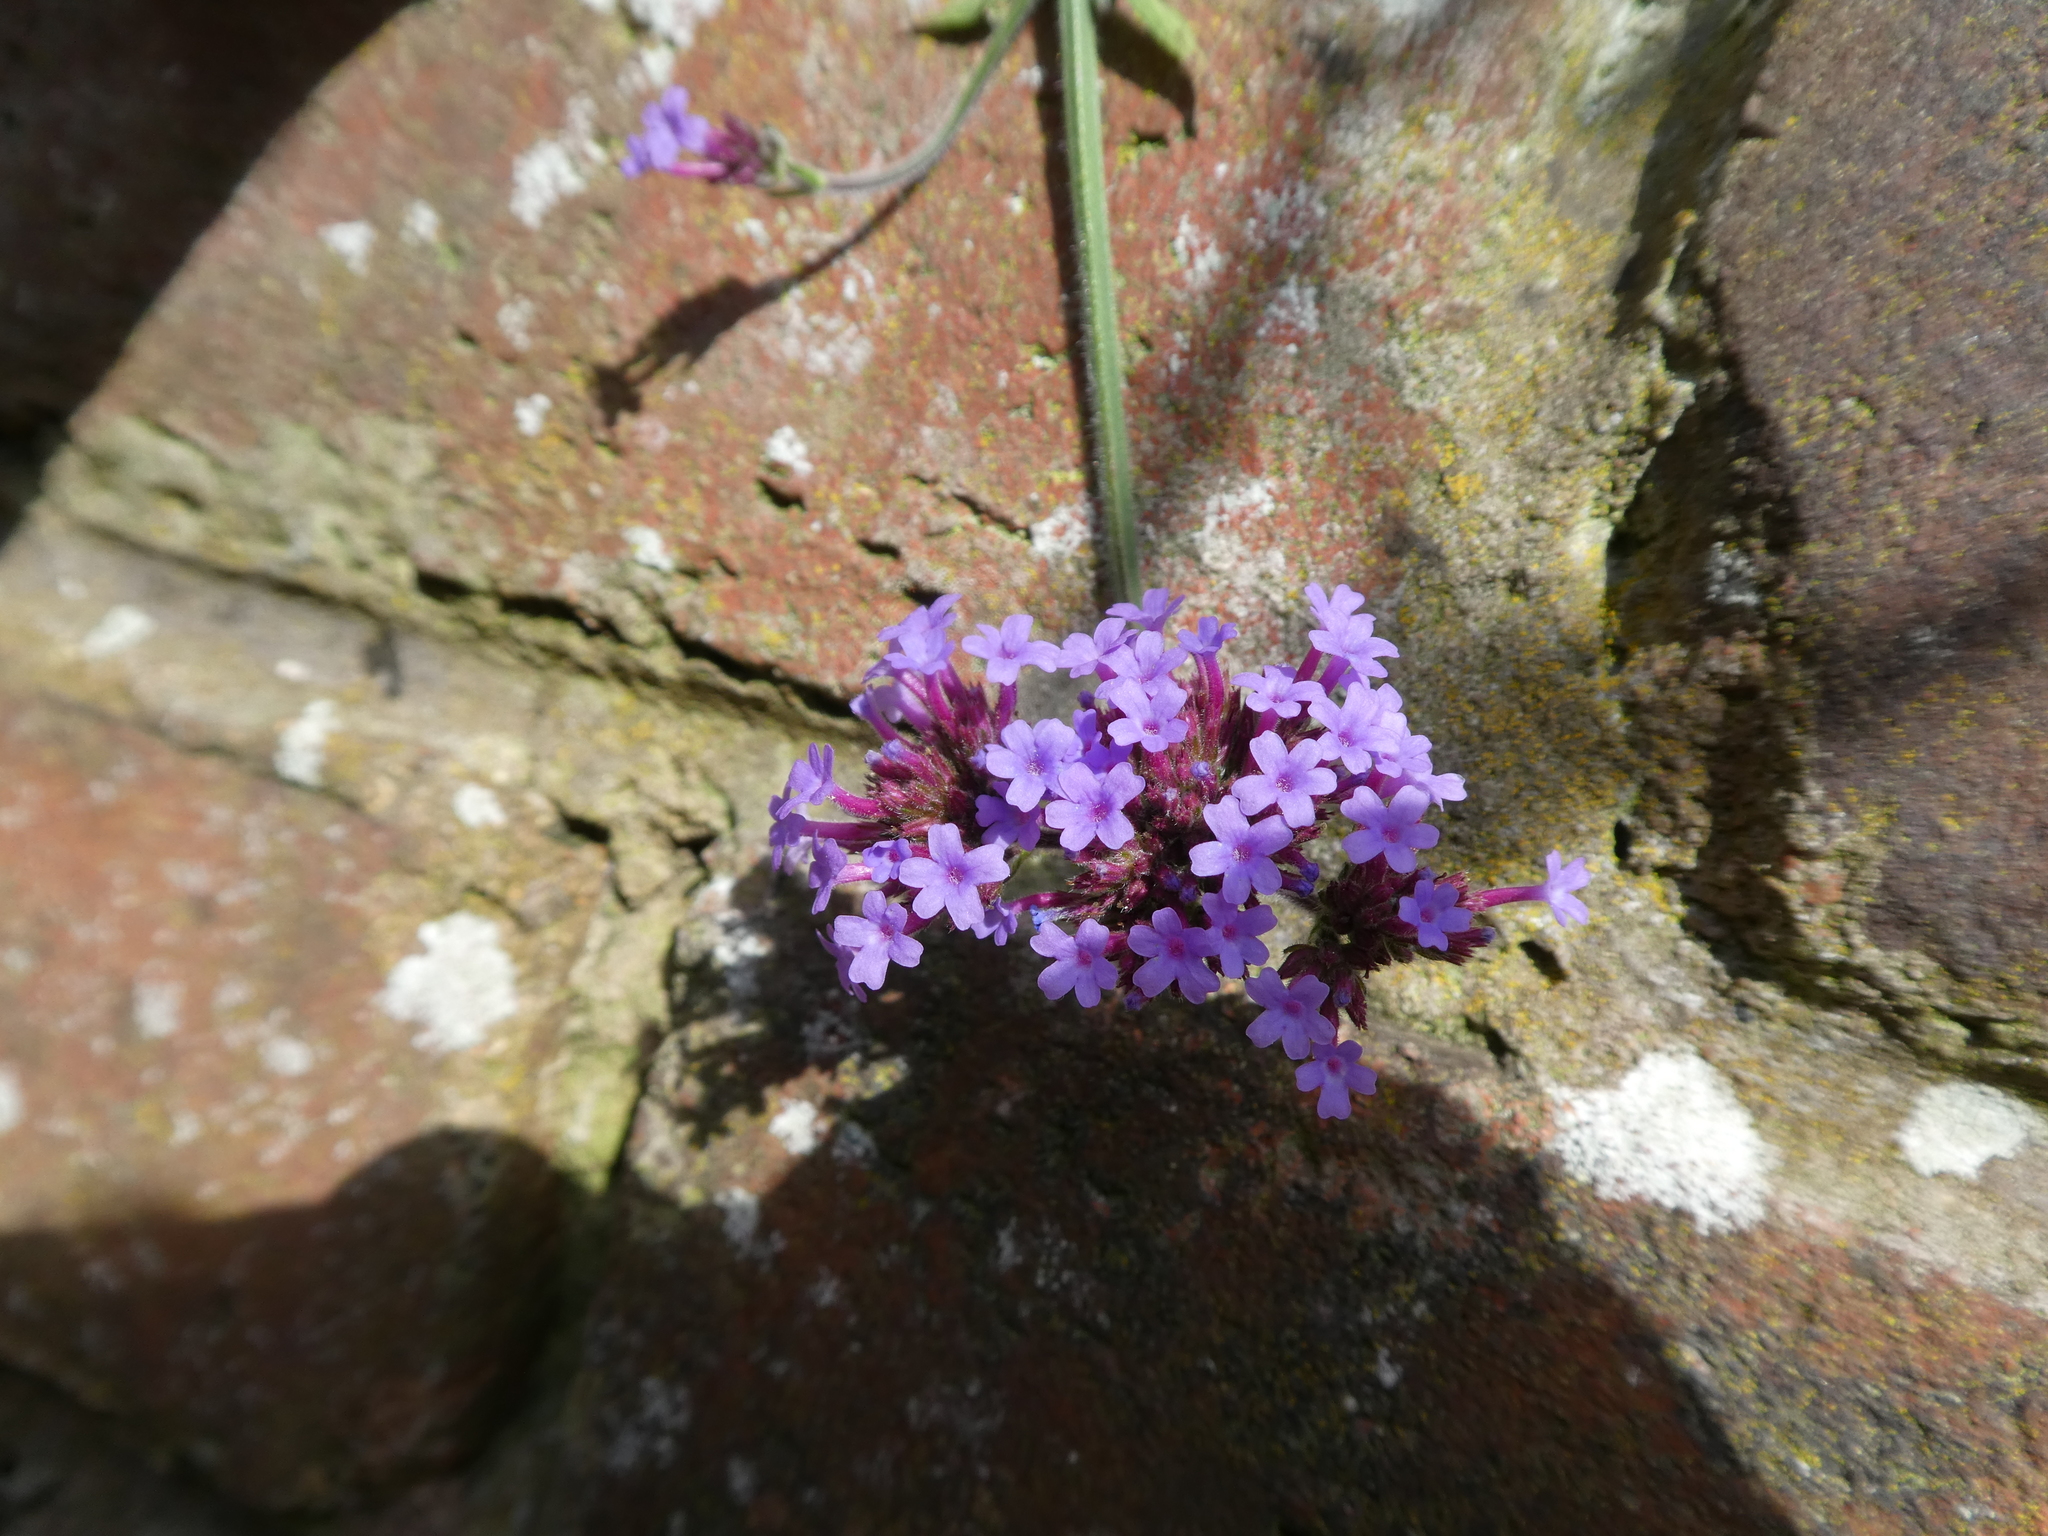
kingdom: Plantae
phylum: Tracheophyta
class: Magnoliopsida
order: Lamiales
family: Verbenaceae
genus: Verbena
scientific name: Verbena bonariensis
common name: Purpletop vervain
